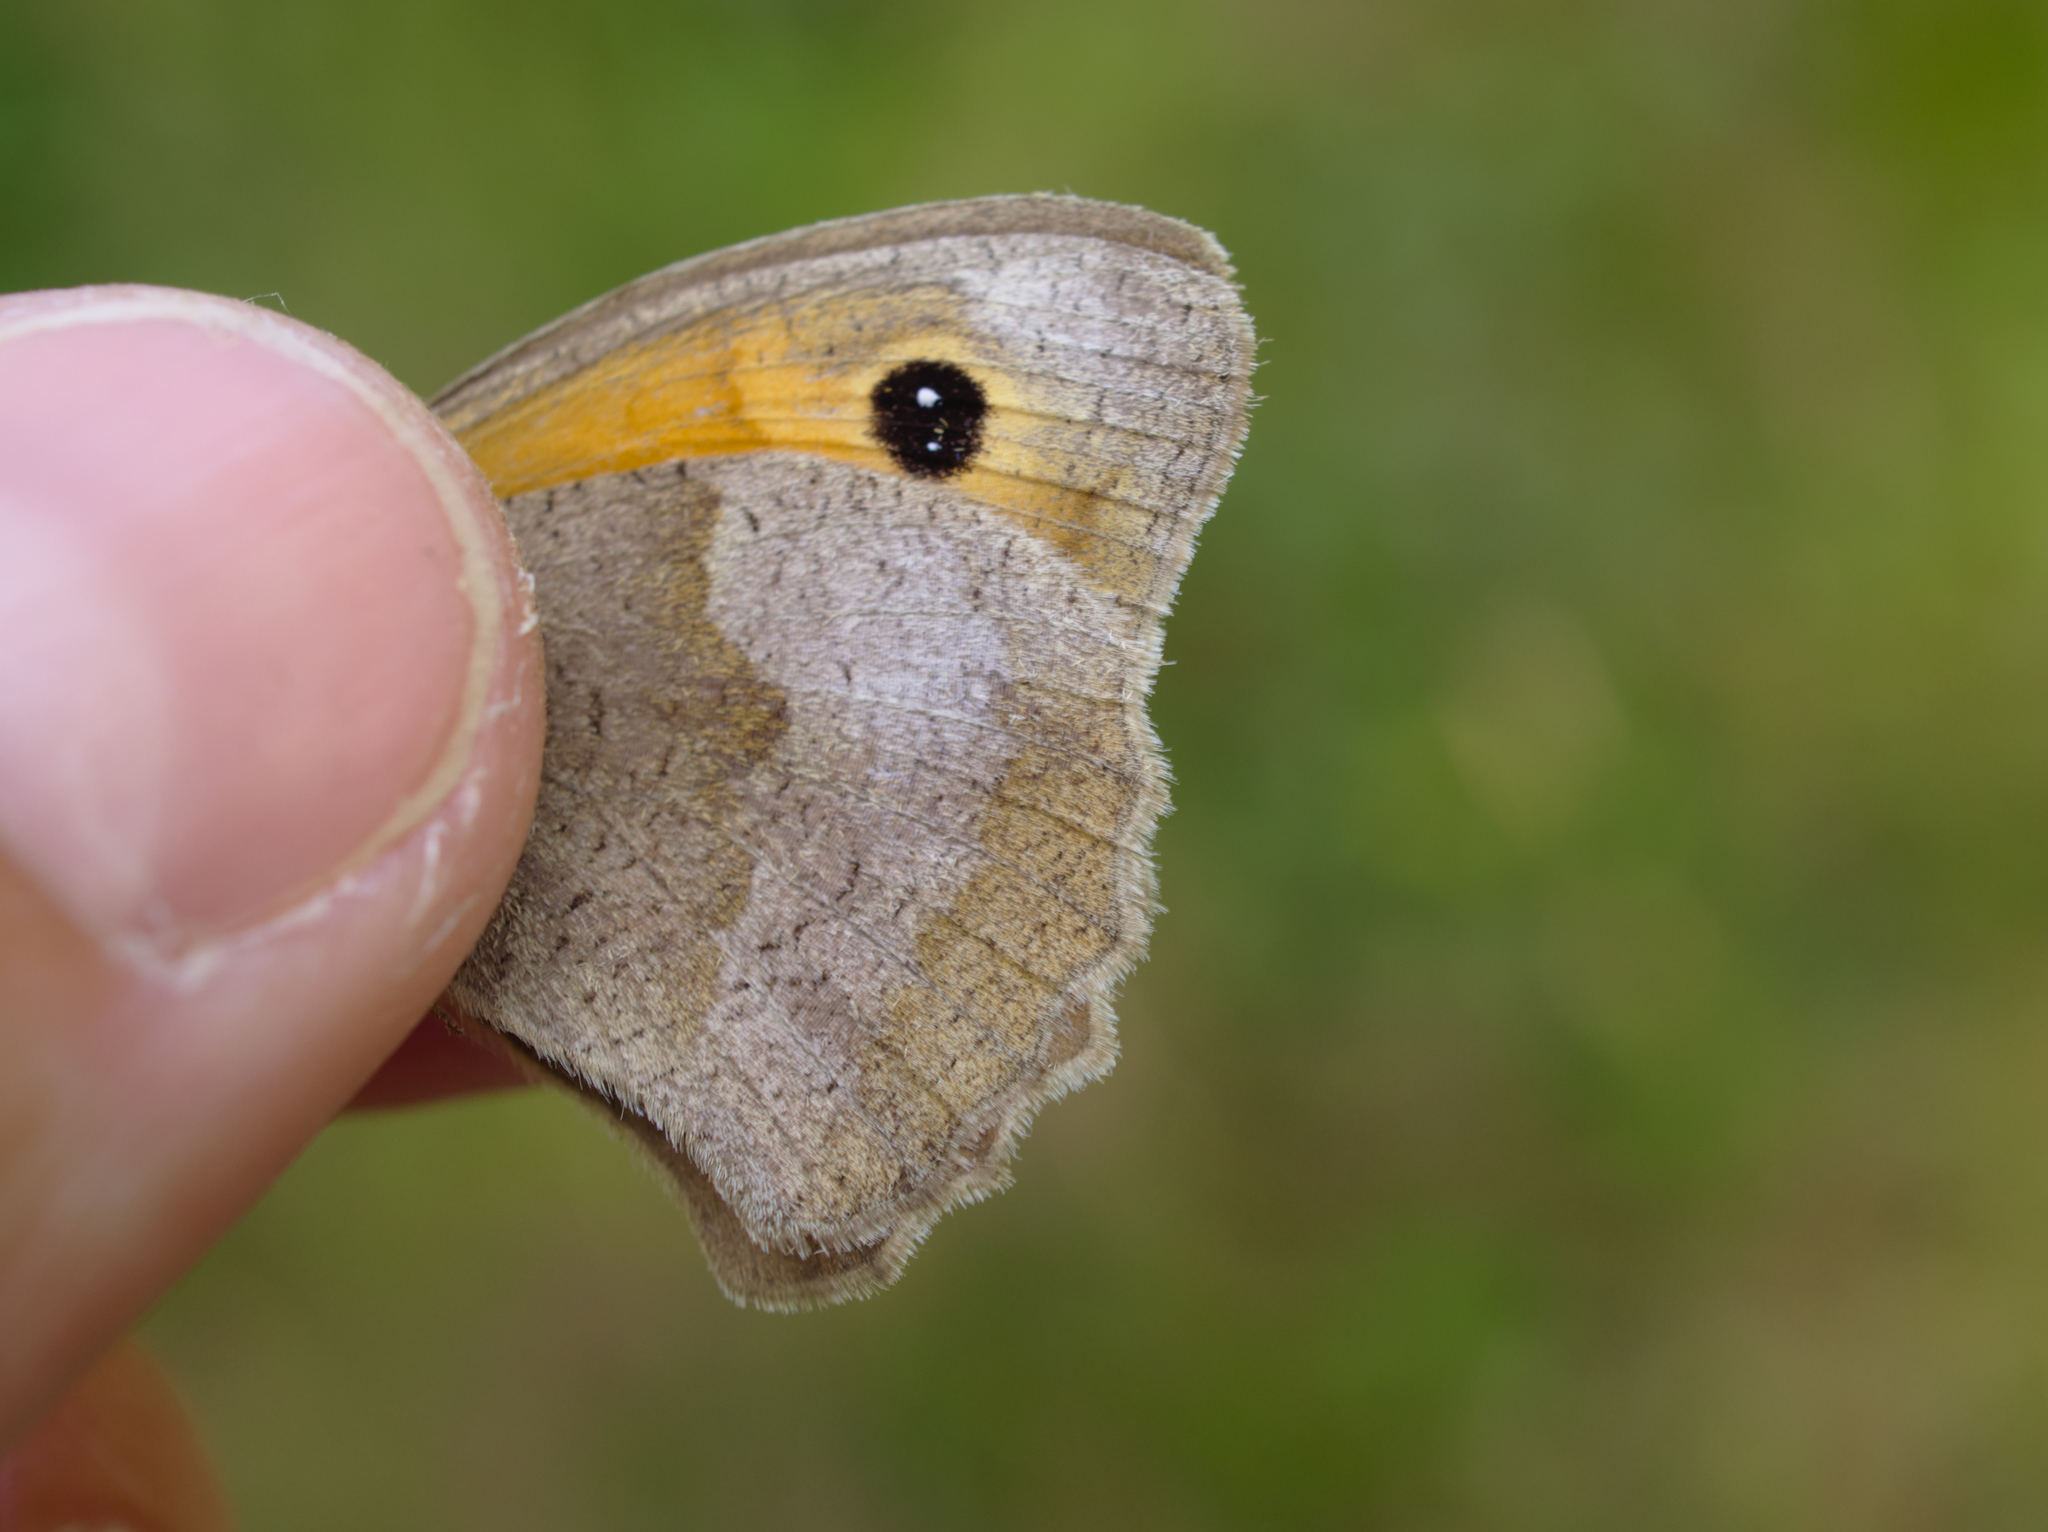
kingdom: Animalia
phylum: Arthropoda
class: Insecta
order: Lepidoptera
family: Nymphalidae
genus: Maniola
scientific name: Maniola jurtina
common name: Meadow brown
